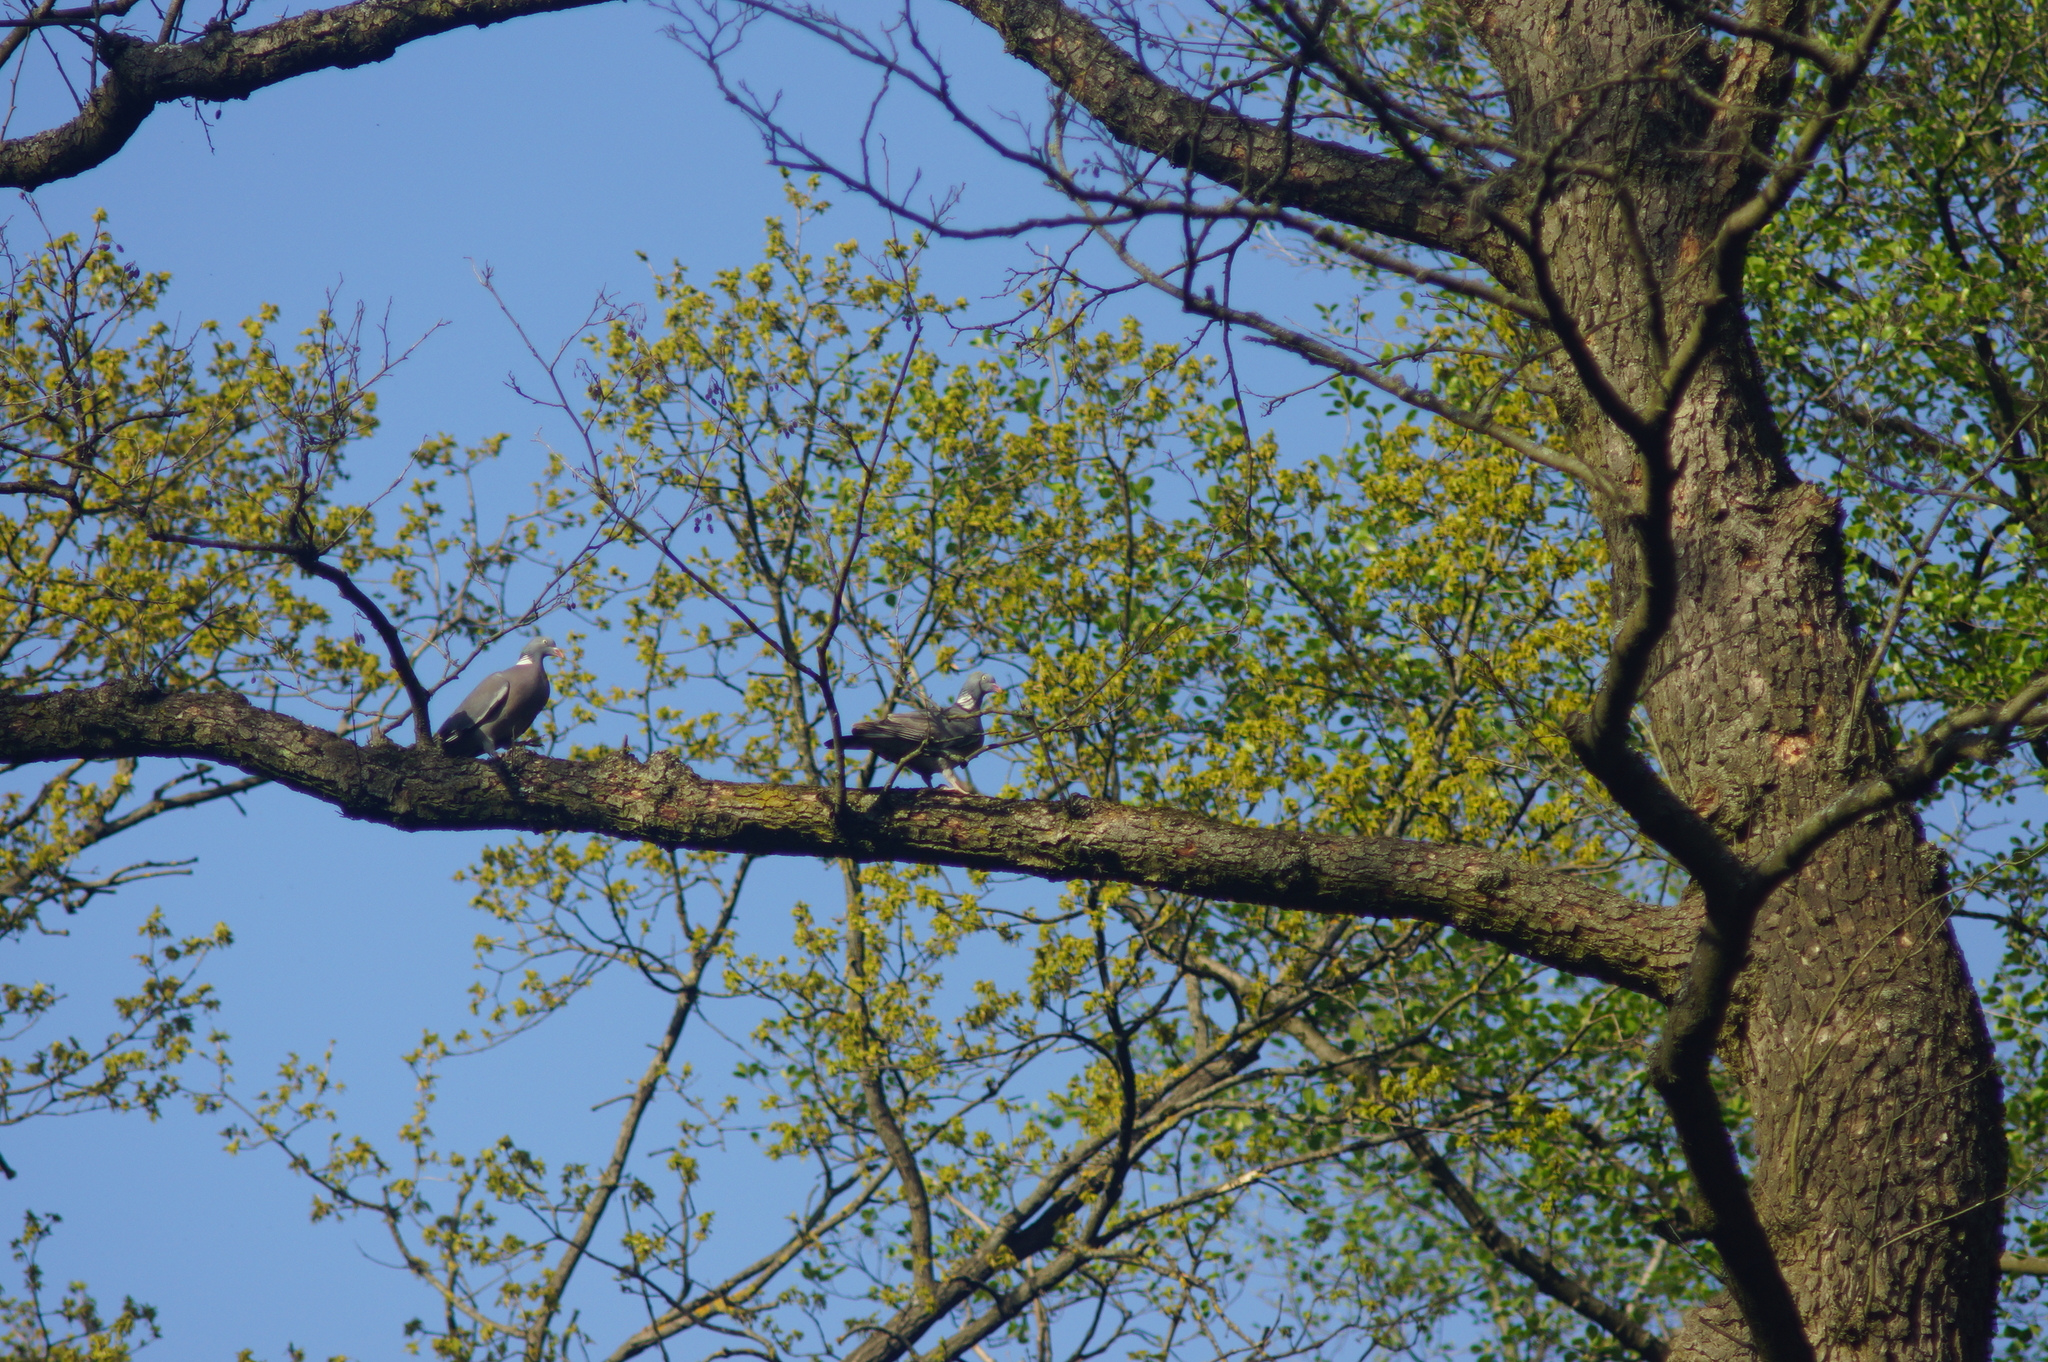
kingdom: Animalia
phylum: Chordata
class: Aves
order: Columbiformes
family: Columbidae
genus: Columba
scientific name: Columba palumbus
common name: Common wood pigeon
